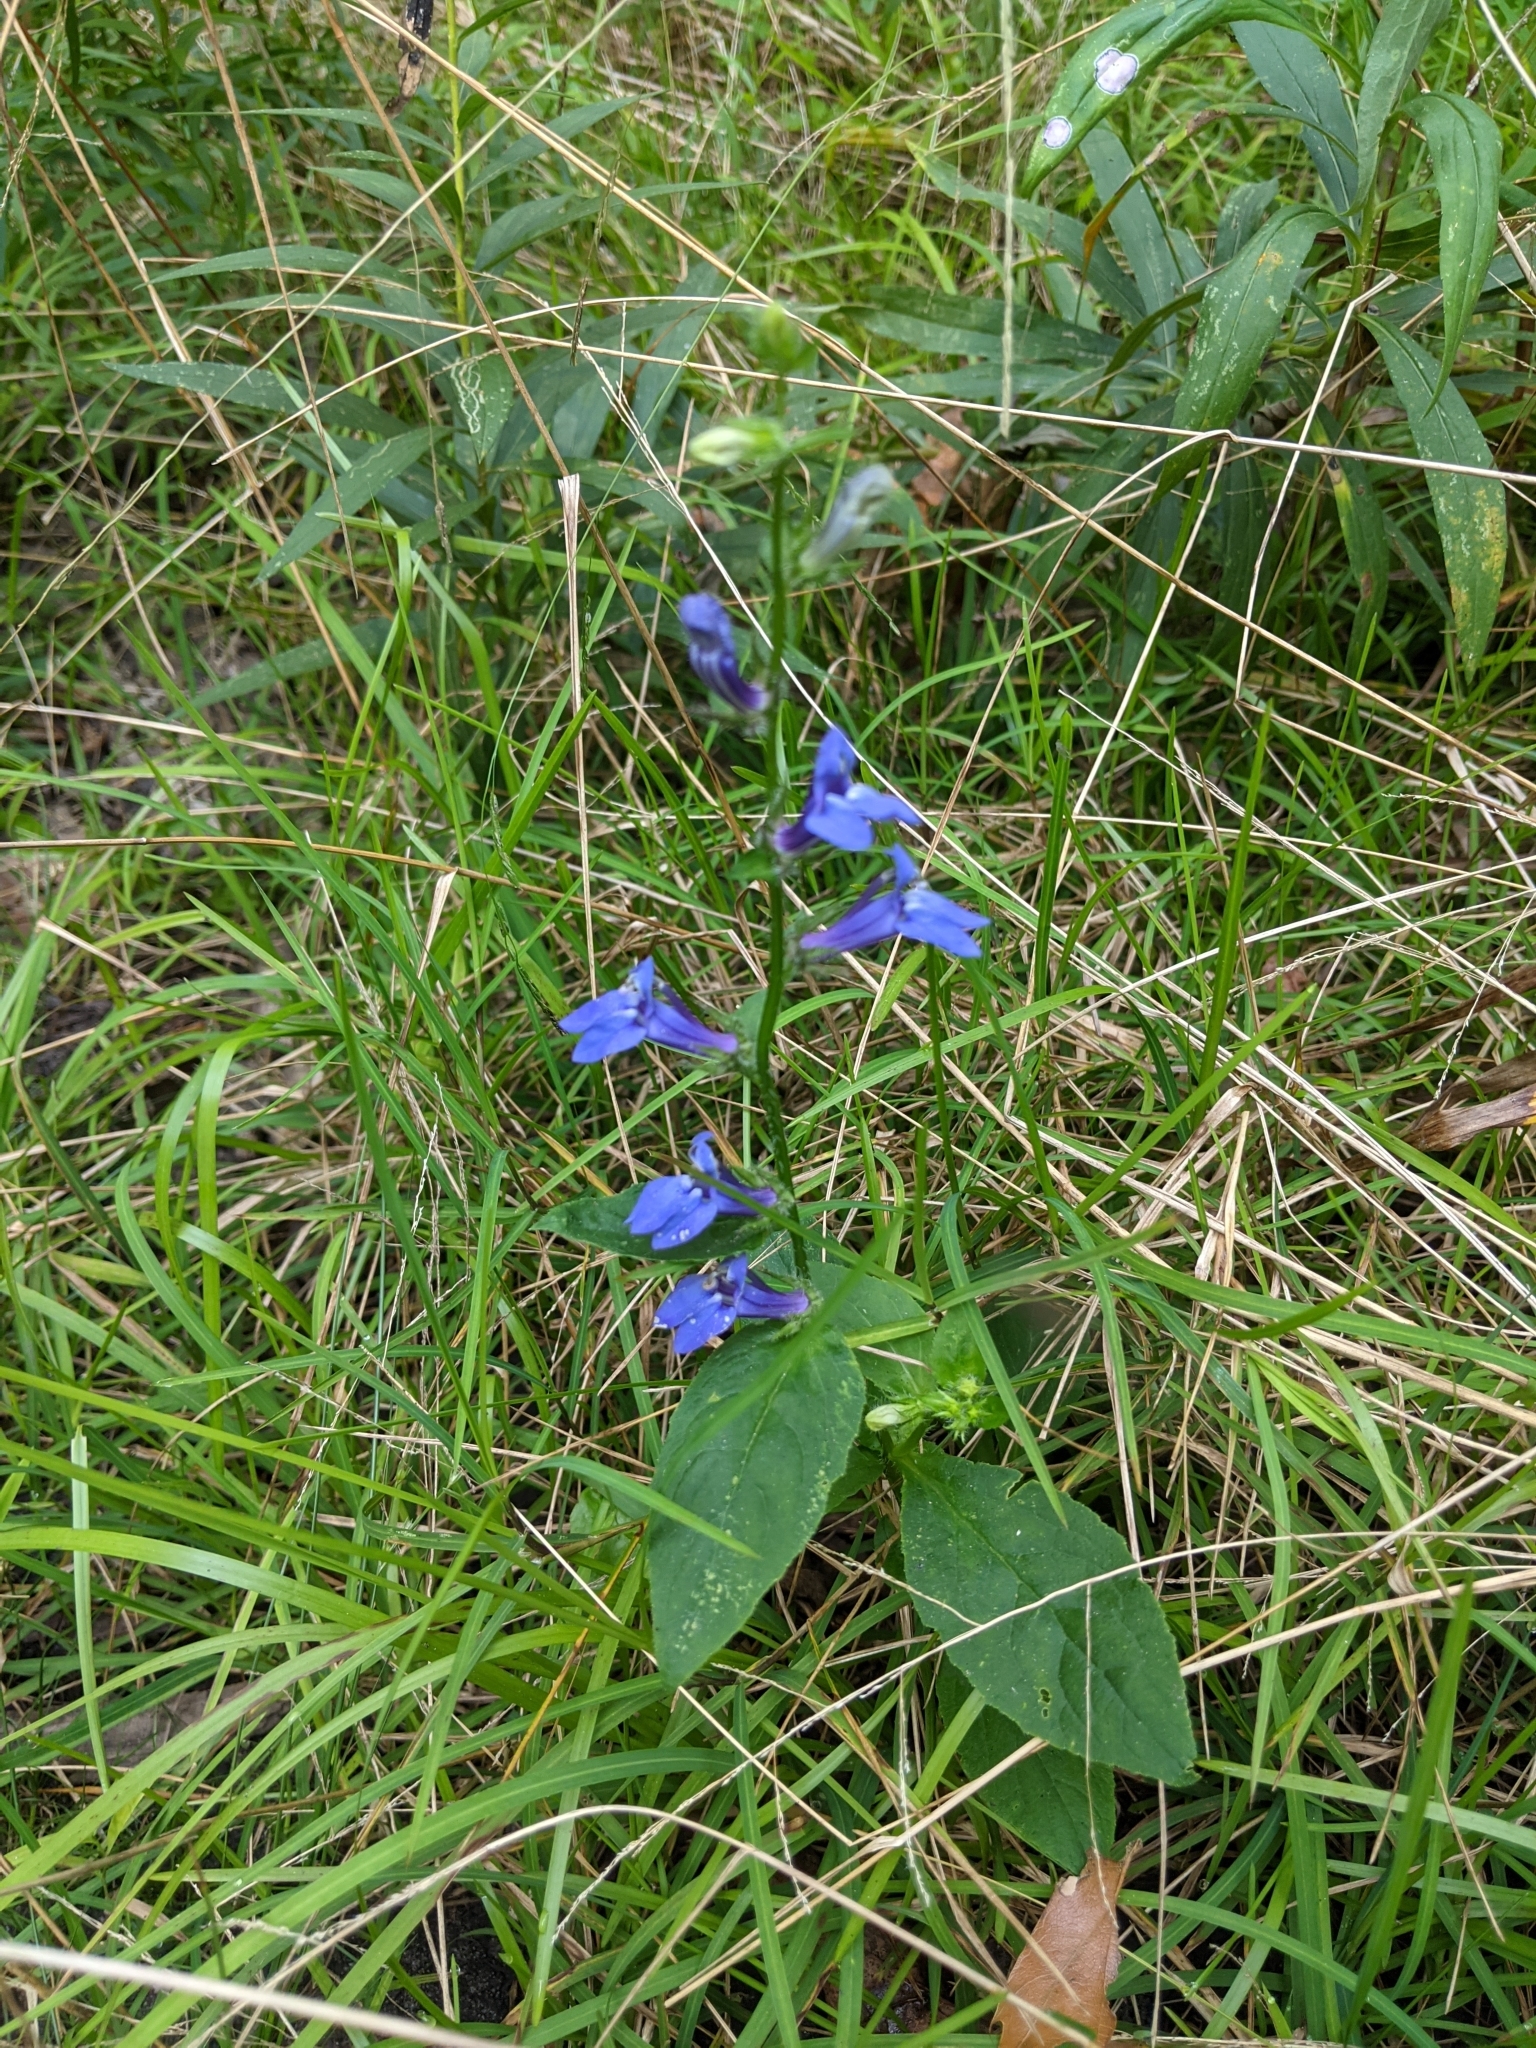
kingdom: Plantae
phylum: Tracheophyta
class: Magnoliopsida
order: Asterales
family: Campanulaceae
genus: Lobelia
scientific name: Lobelia siphilitica
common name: Great lobelia
